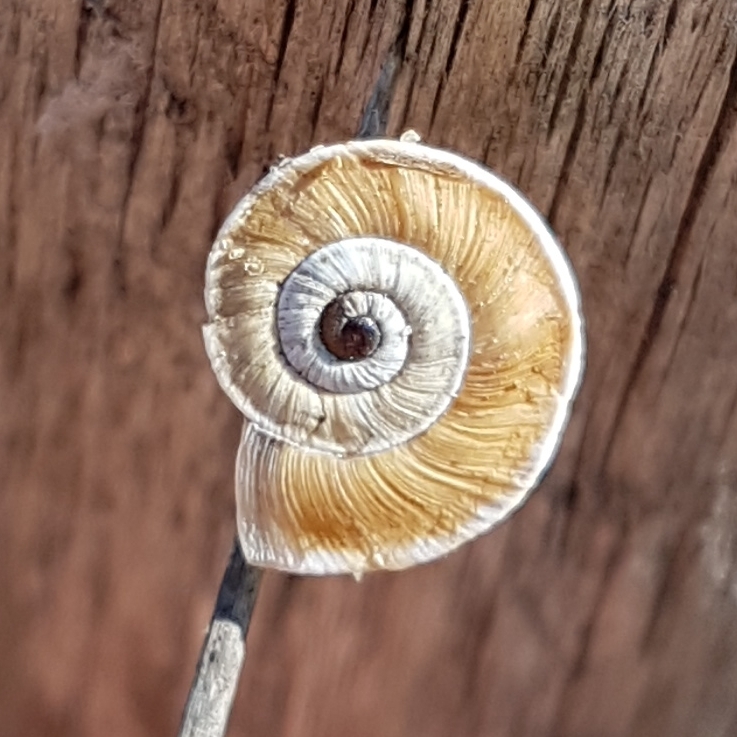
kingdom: Animalia
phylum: Mollusca
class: Gastropoda
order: Stylommatophora
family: Geomitridae
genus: Xerosecta
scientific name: Xerosecta explanata
